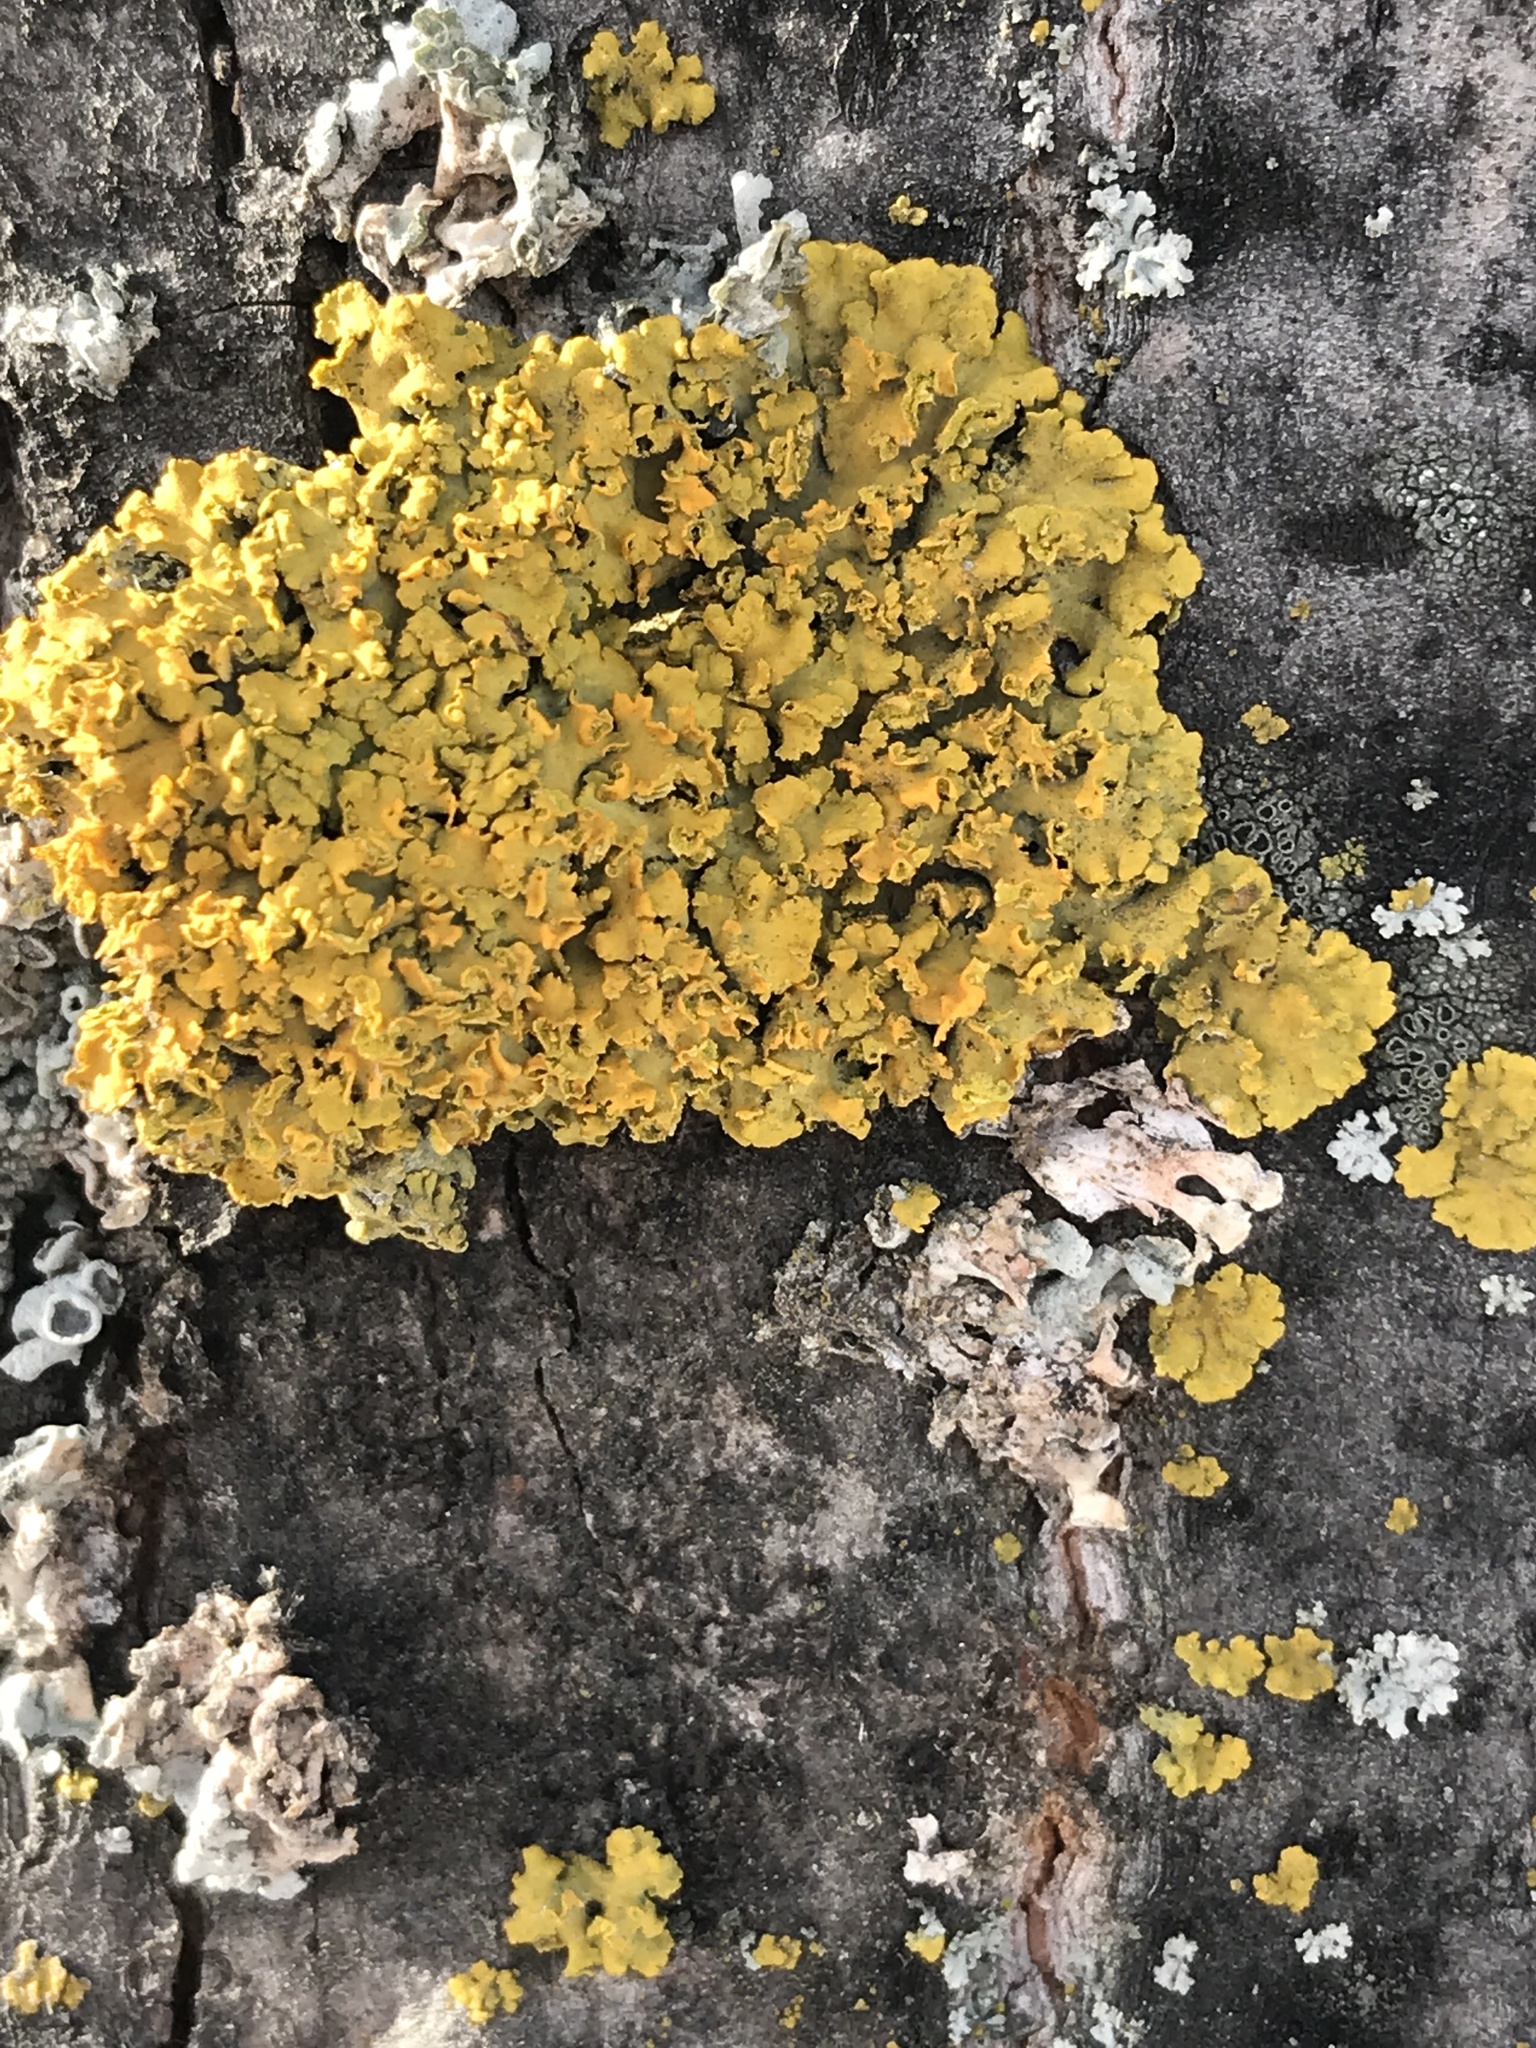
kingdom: Fungi
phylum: Ascomycota
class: Lecanoromycetes
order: Teloschistales
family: Teloschistaceae
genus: Oxneria
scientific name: Oxneria fallax
